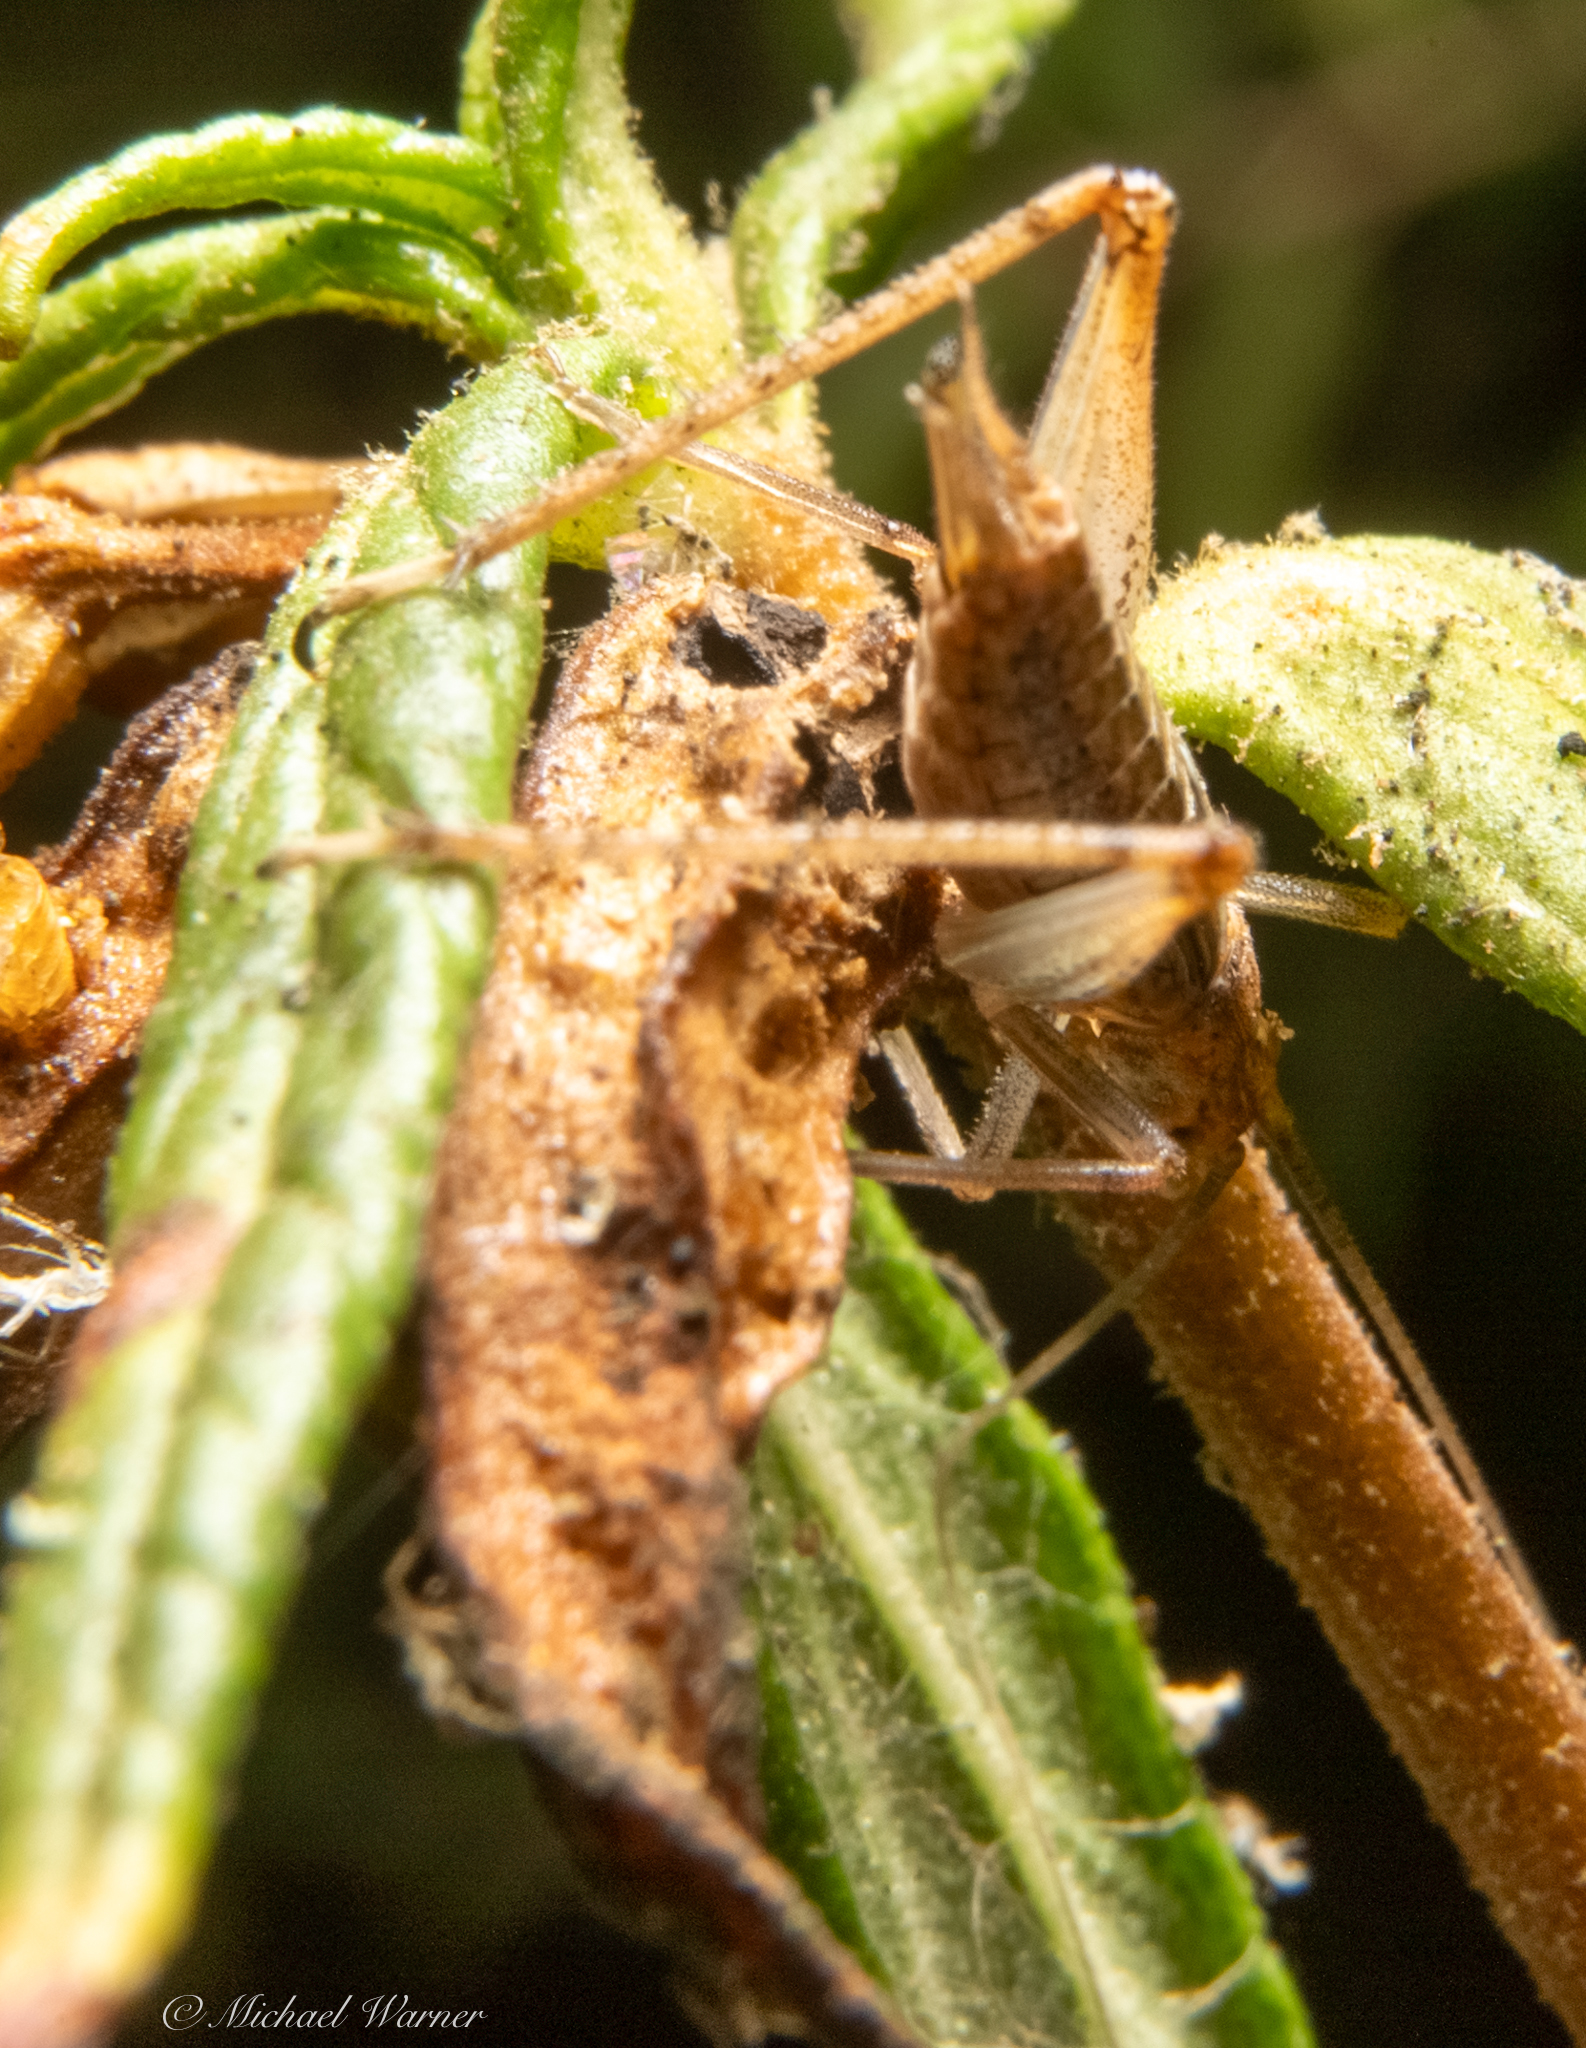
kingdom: Animalia
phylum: Arthropoda
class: Insecta
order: Orthoptera
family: Gryllidae
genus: Oecanthus
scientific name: Oecanthus californicus
